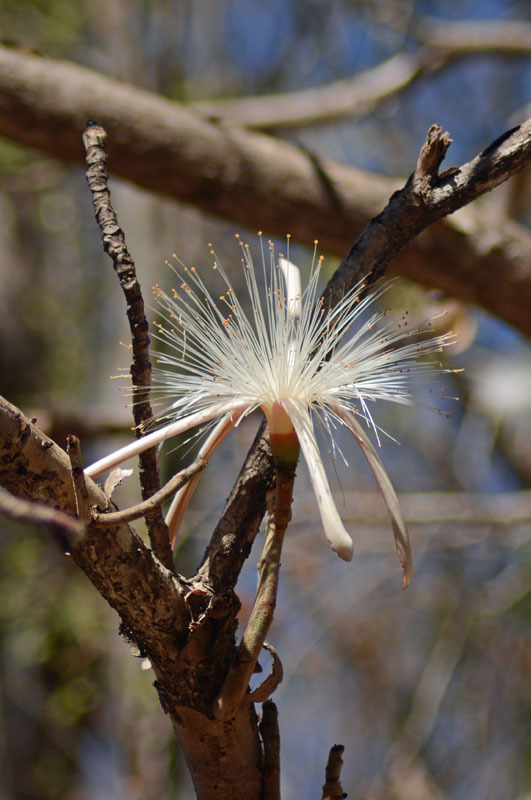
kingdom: Plantae
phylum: Tracheophyta
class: Magnoliopsida
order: Malvales
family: Malvaceae
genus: Pseudobombax
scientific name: Pseudobombax palmeri
